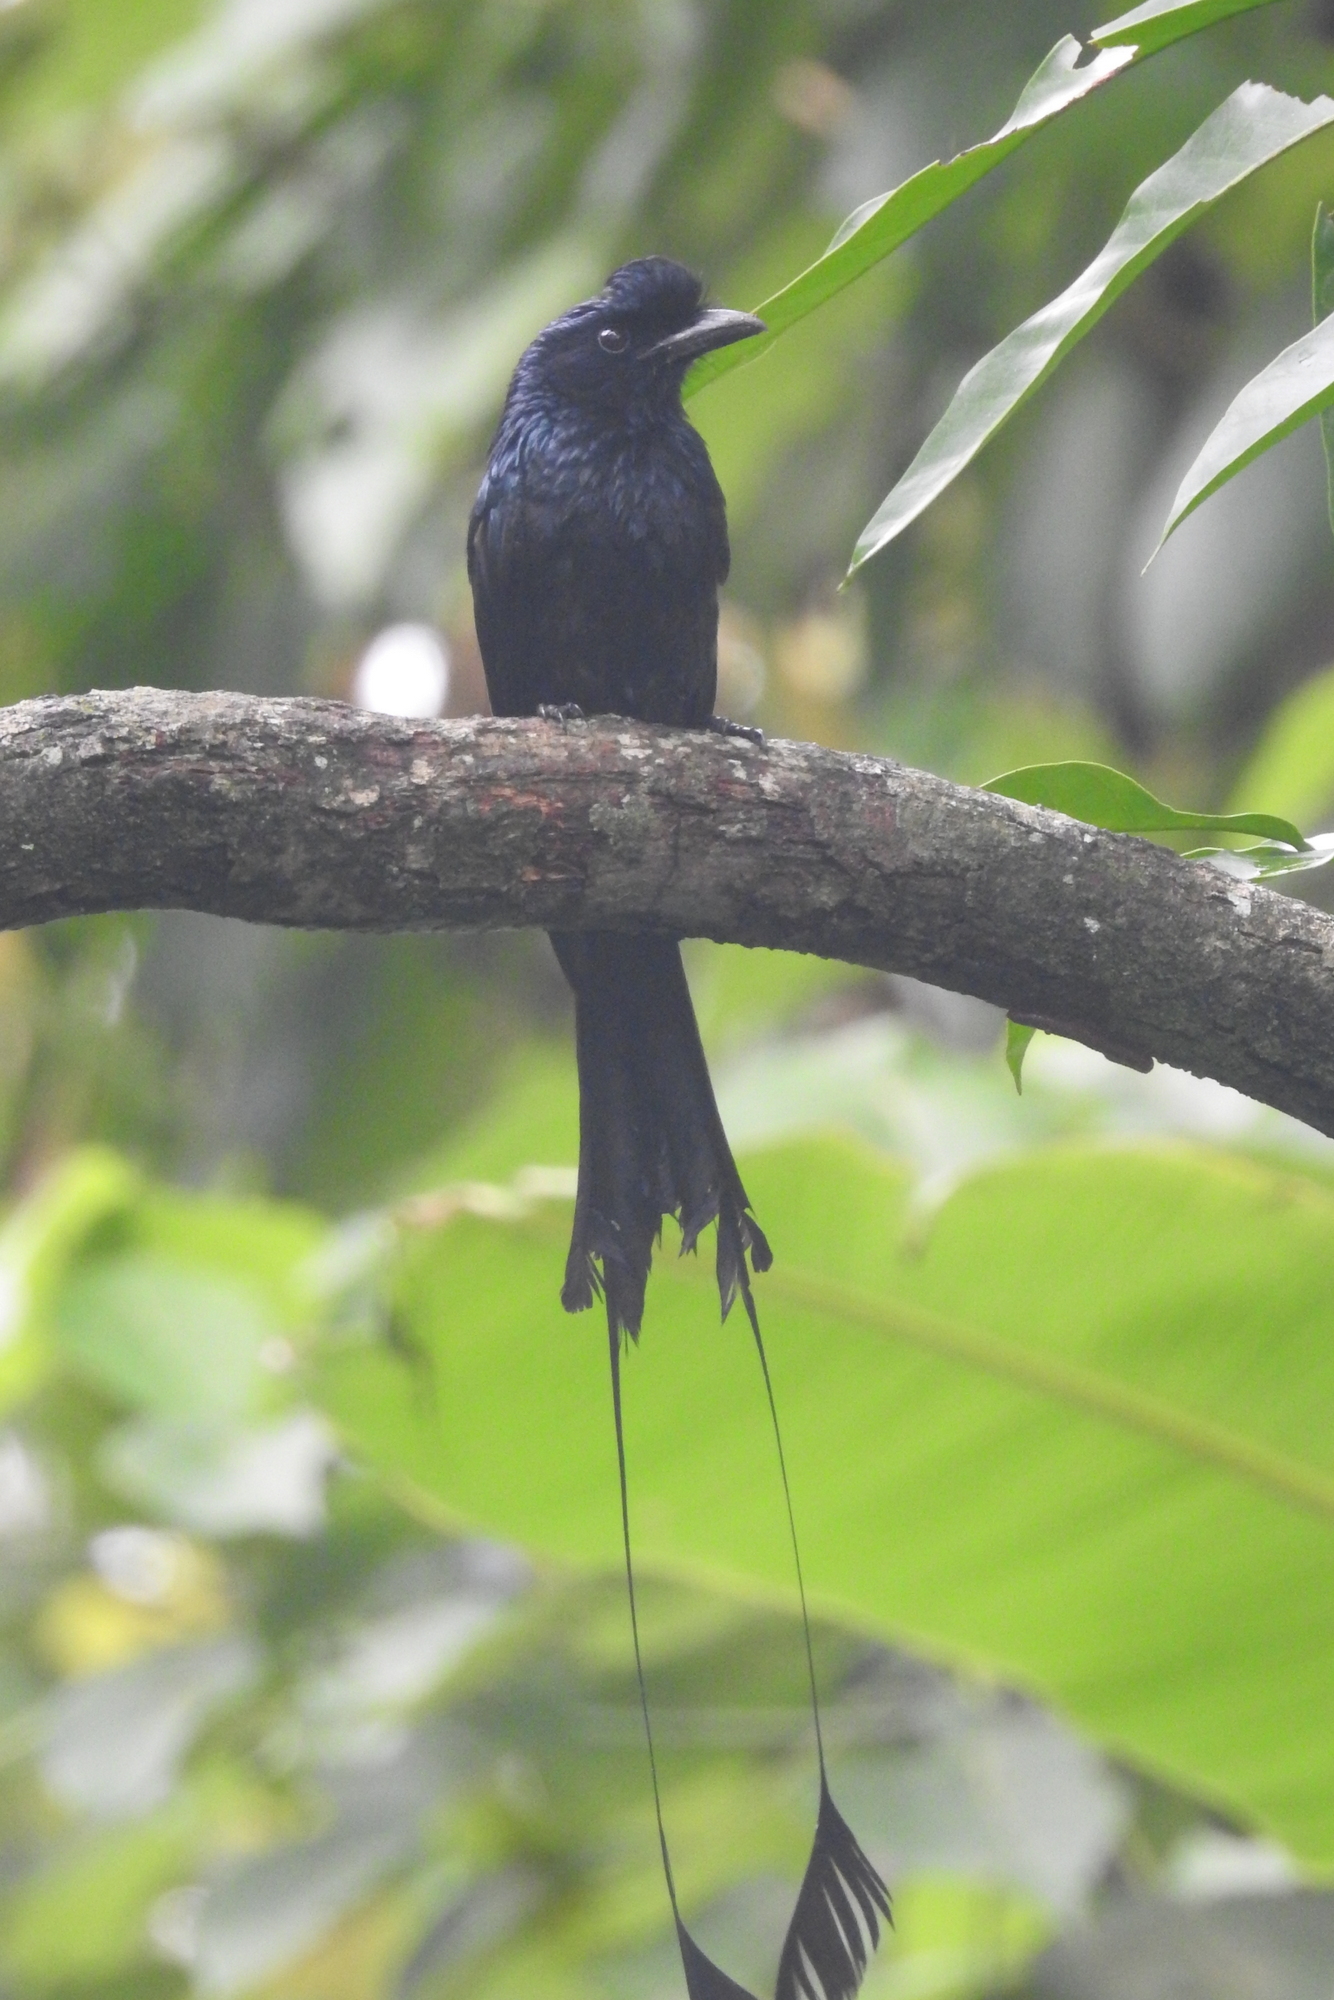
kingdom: Animalia
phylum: Chordata
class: Aves
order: Passeriformes
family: Dicruridae
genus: Dicrurus
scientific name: Dicrurus paradiseus
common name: Greater racket-tailed drongo
